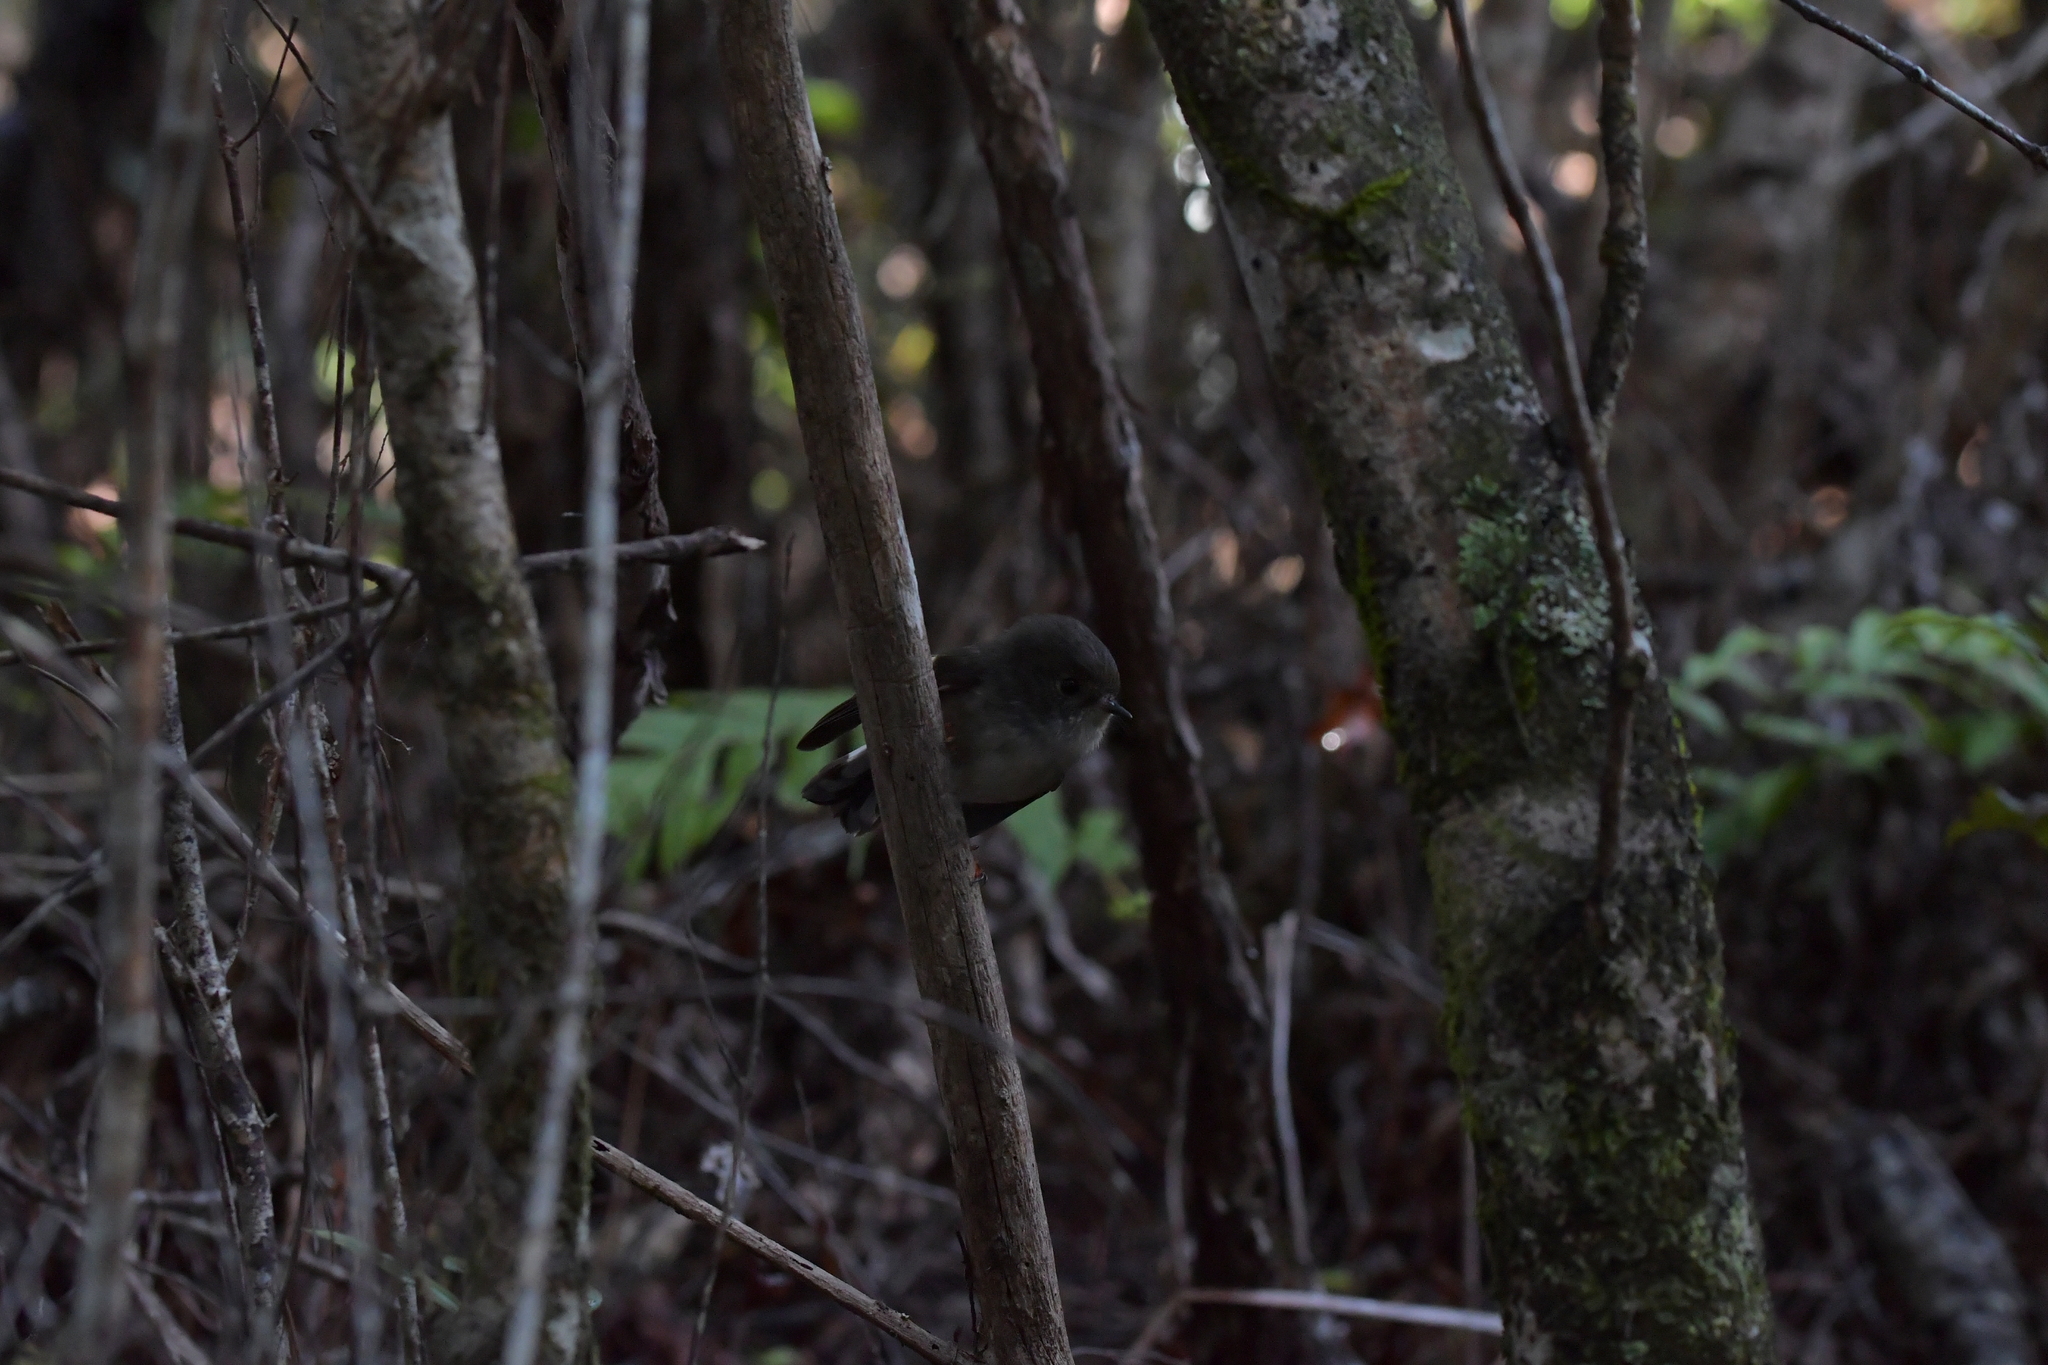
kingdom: Animalia
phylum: Chordata
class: Aves
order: Passeriformes
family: Petroicidae
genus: Petroica
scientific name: Petroica macrocephala
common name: Tomtit
